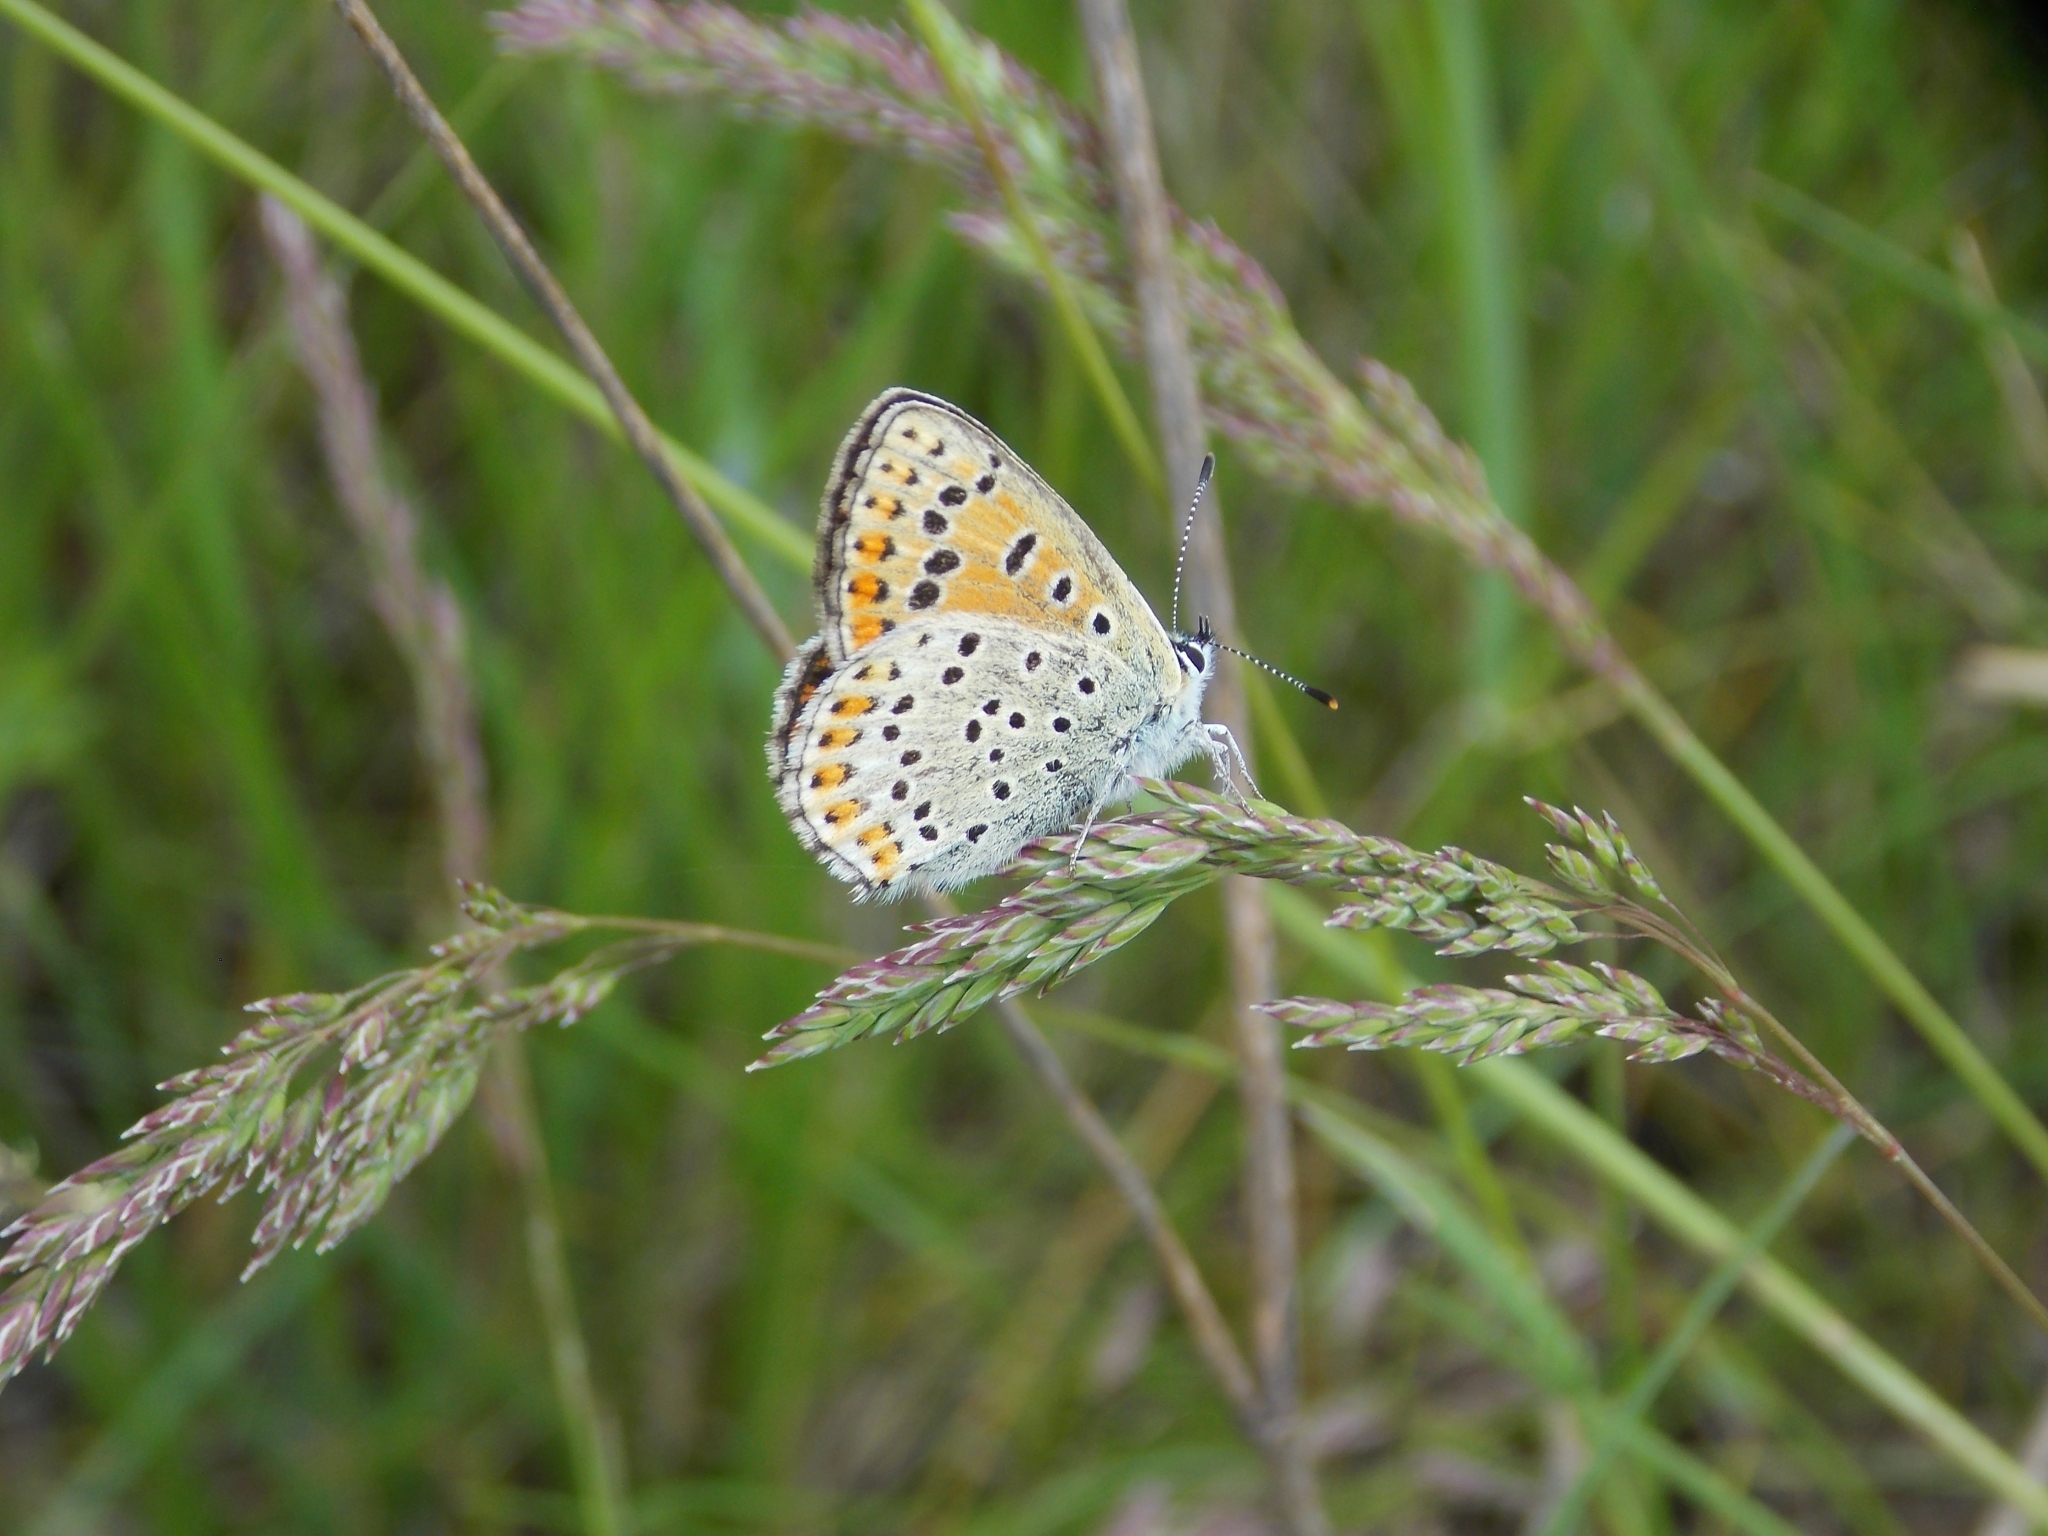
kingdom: Animalia
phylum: Arthropoda
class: Insecta
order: Lepidoptera
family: Lycaenidae
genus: Loweia
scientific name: Loweia tityrus
